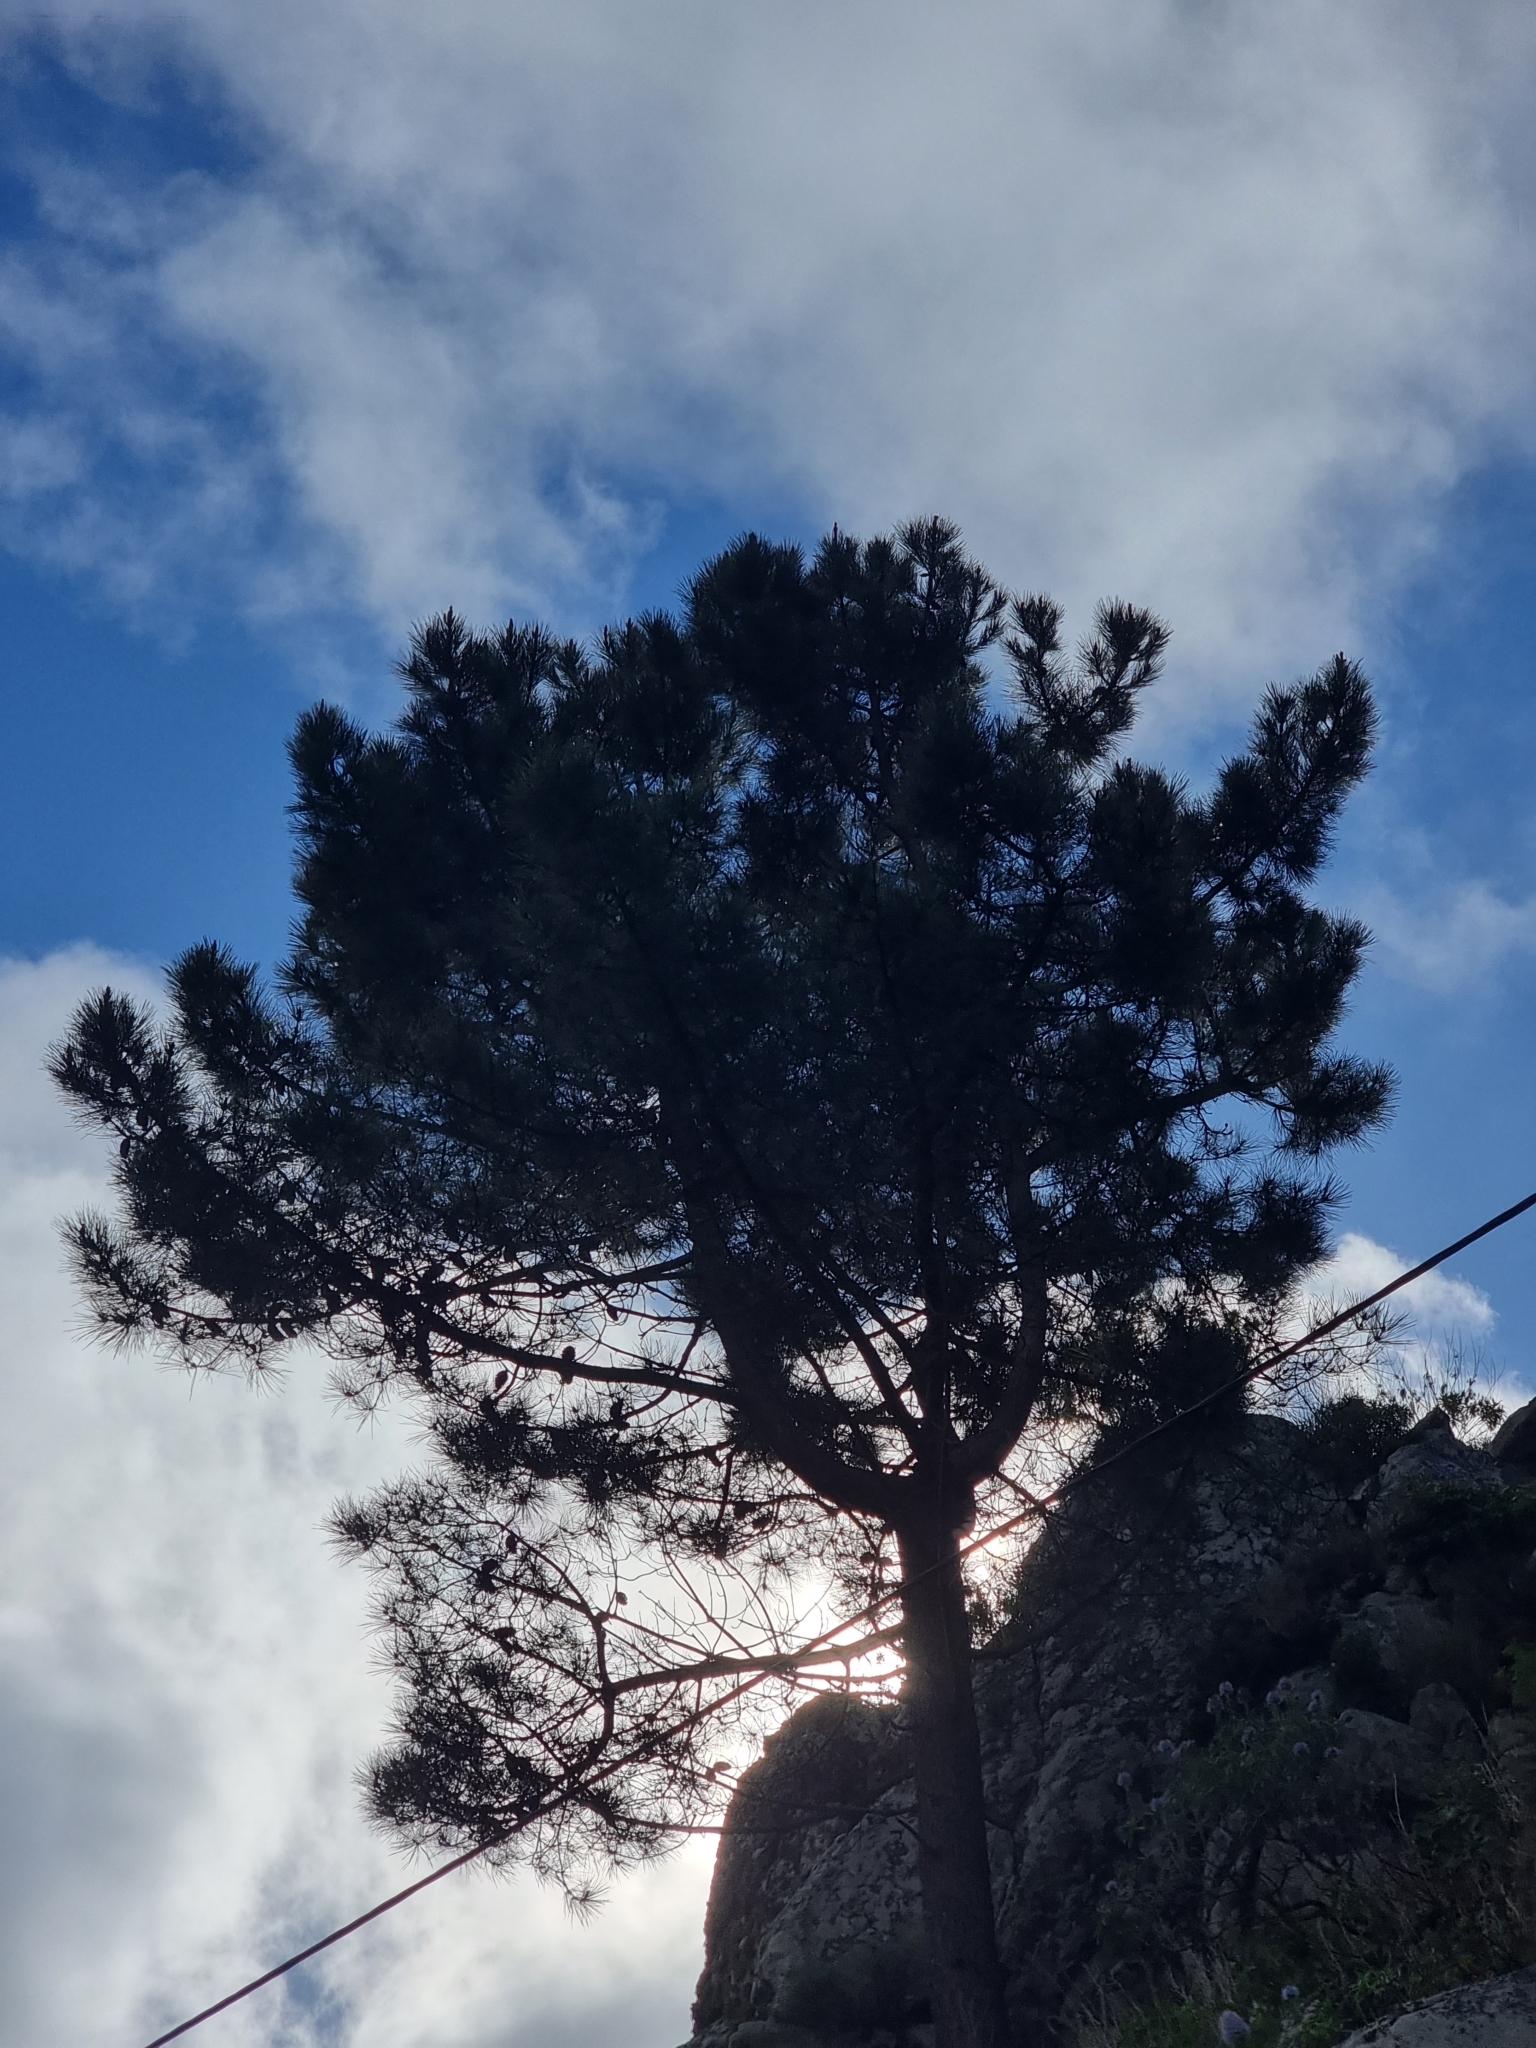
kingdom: Plantae
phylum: Tracheophyta
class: Pinopsida
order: Pinales
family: Pinaceae
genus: Pinus
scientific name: Pinus pinaster
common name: Maritime pine
